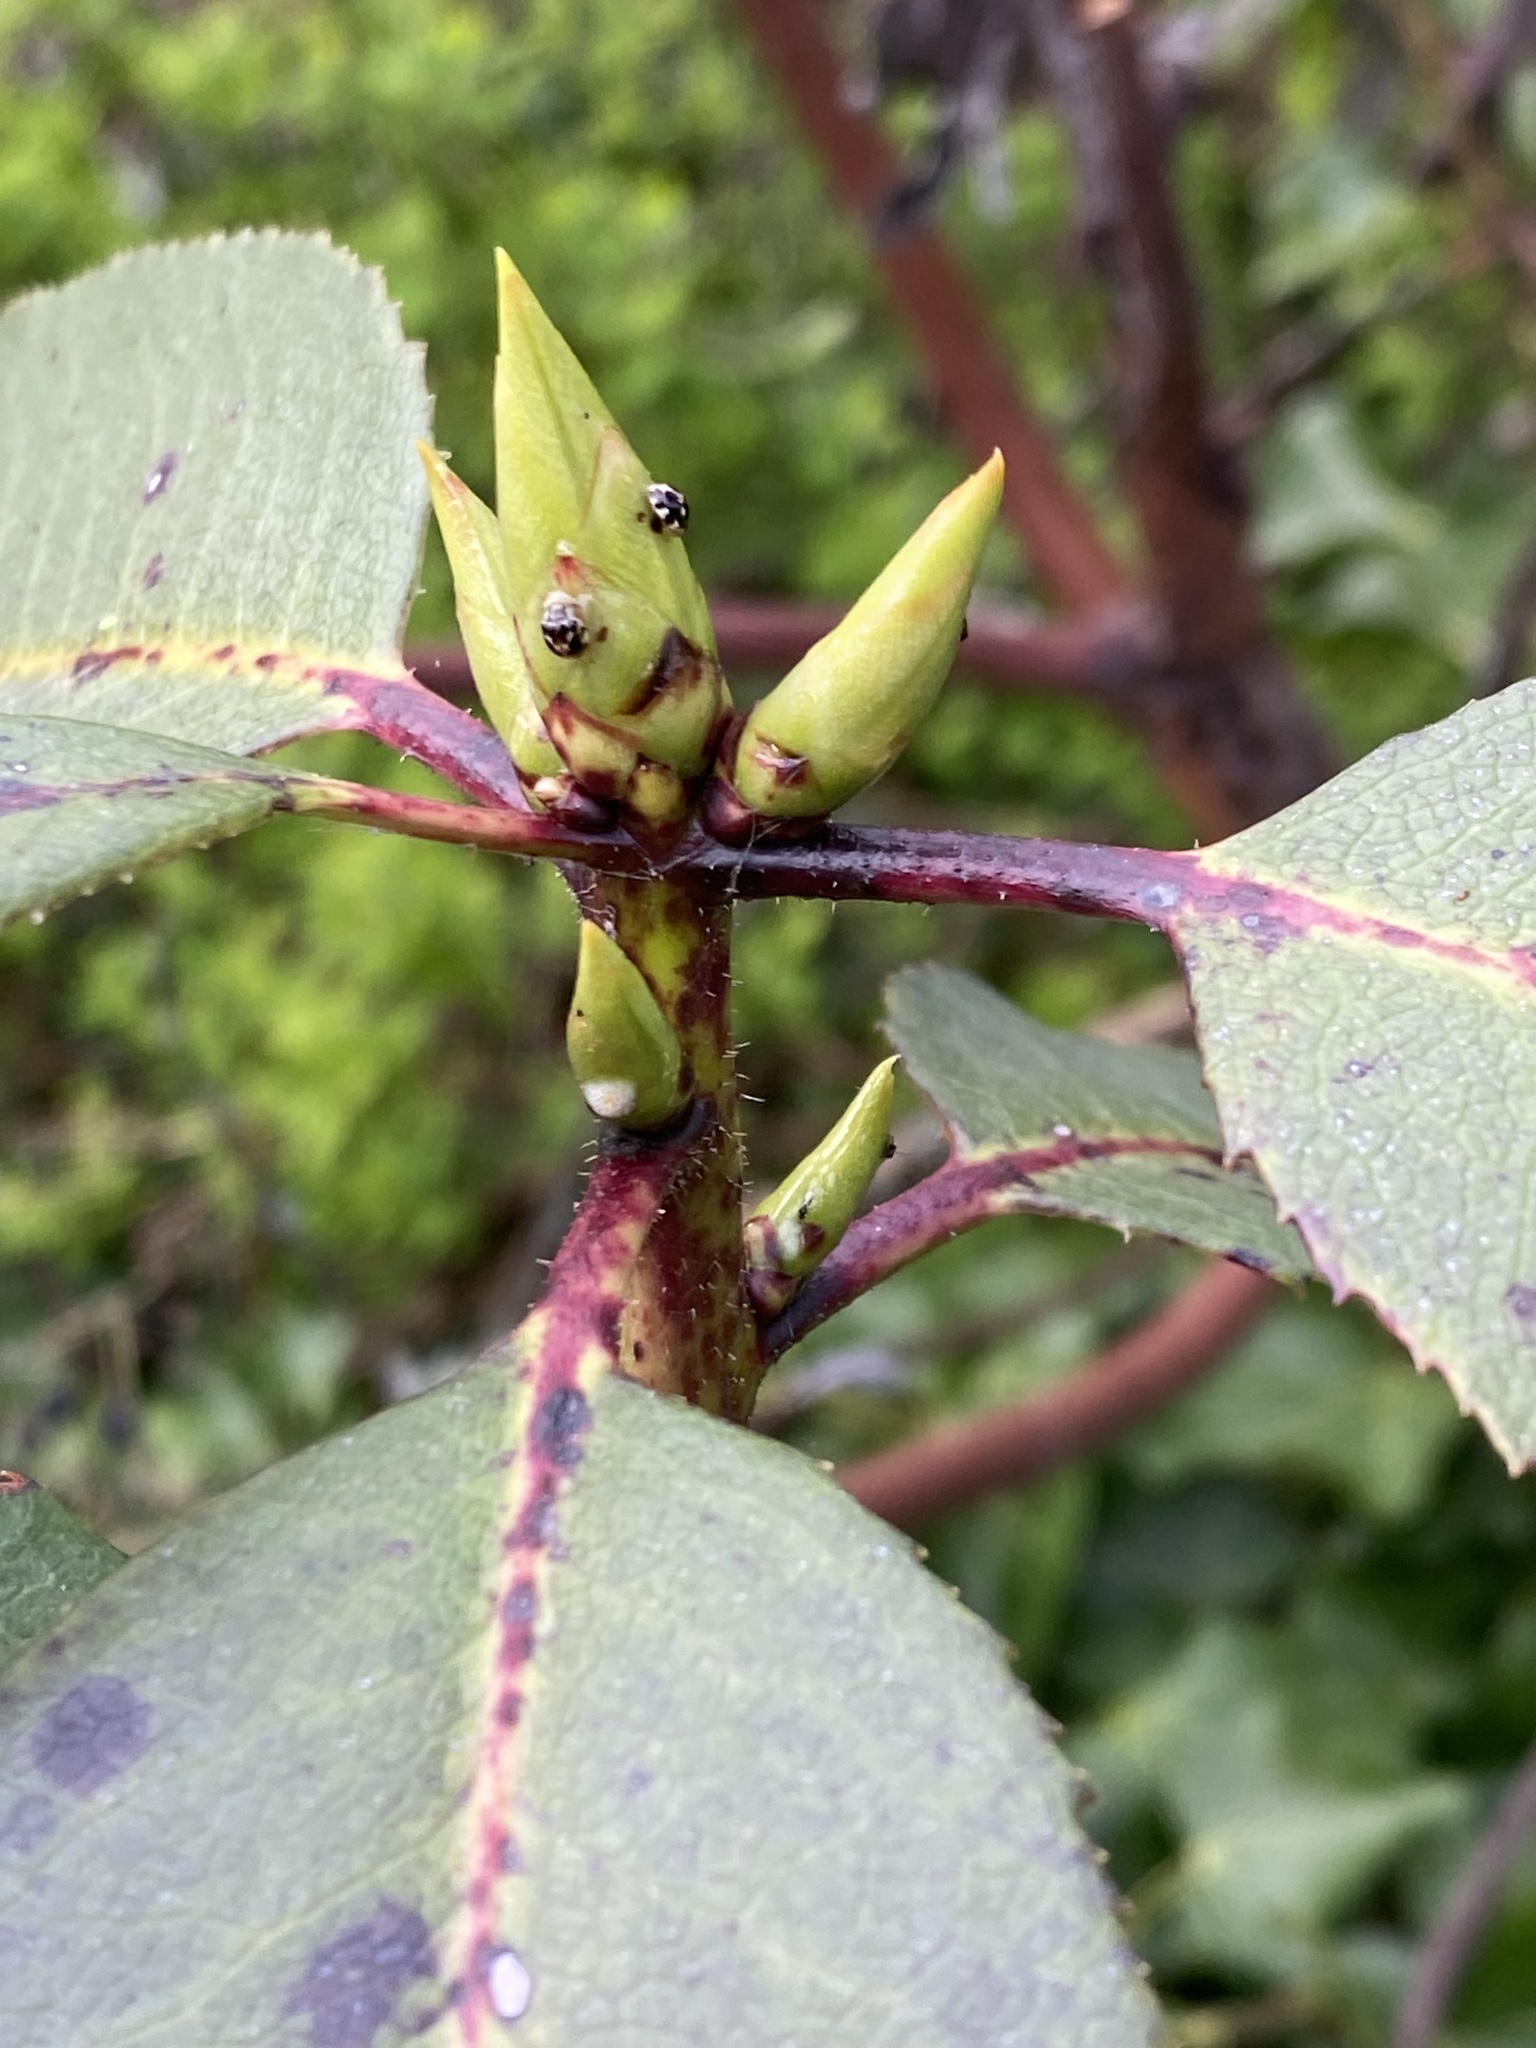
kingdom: Animalia
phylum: Arthropoda
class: Insecta
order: Coleoptera
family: Coccinellidae
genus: Psyllobora
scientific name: Psyllobora vigintimaculata
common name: Ladybird beetle
